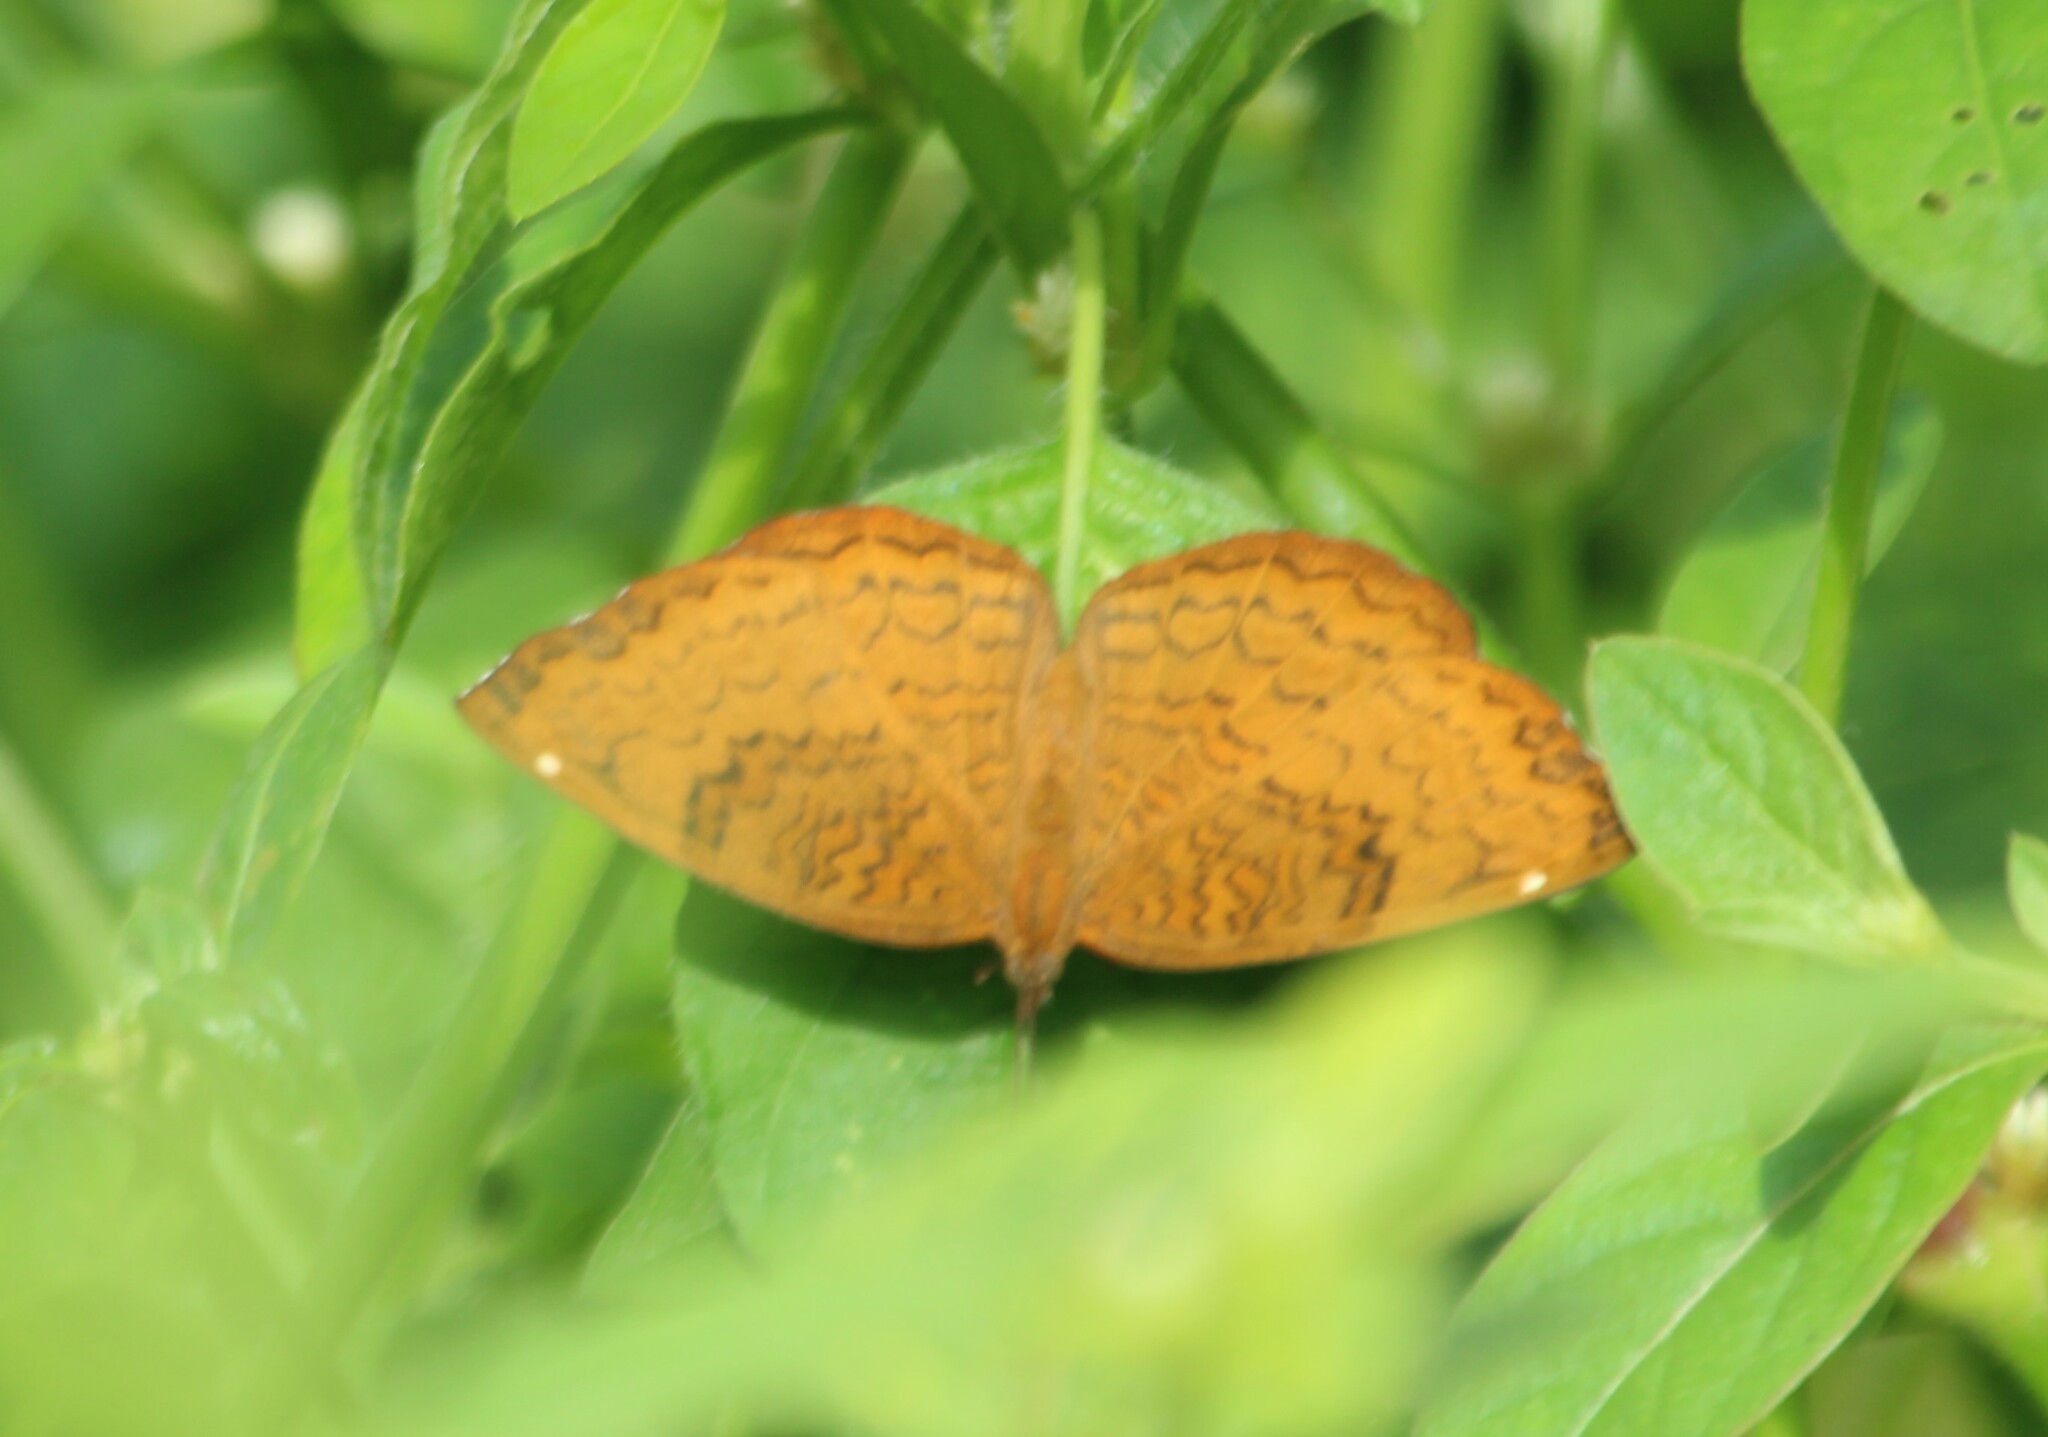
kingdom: Animalia
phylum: Arthropoda
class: Insecta
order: Lepidoptera
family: Nymphalidae
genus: Ariadne
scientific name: Ariadne merione
